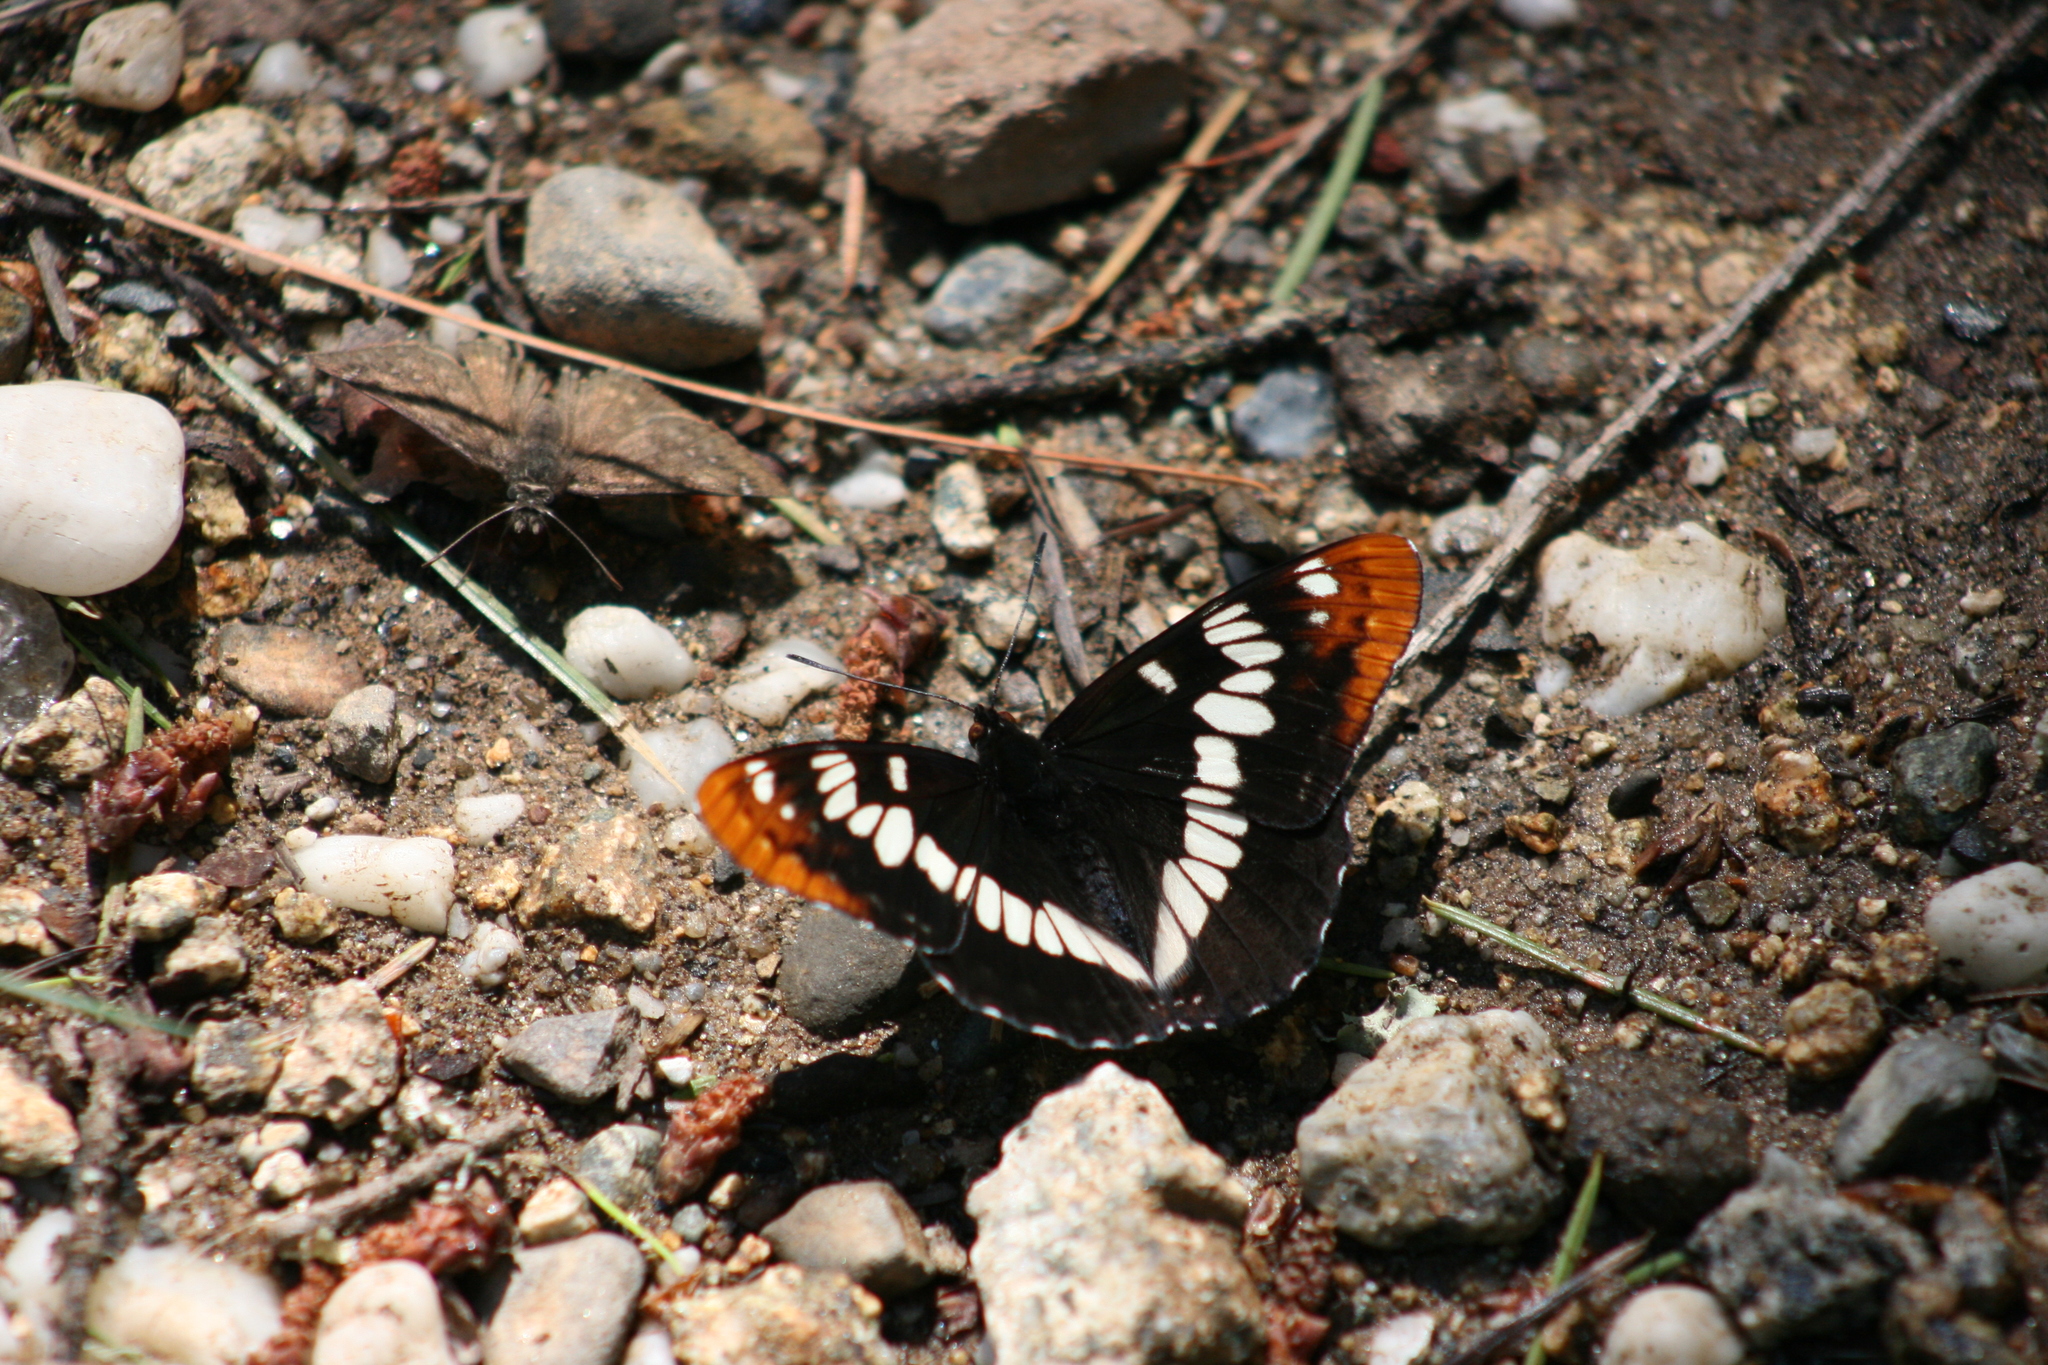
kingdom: Animalia
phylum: Arthropoda
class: Insecta
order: Lepidoptera
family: Nymphalidae
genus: Limenitis
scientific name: Limenitis lorquini
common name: Lorquin's admiral
